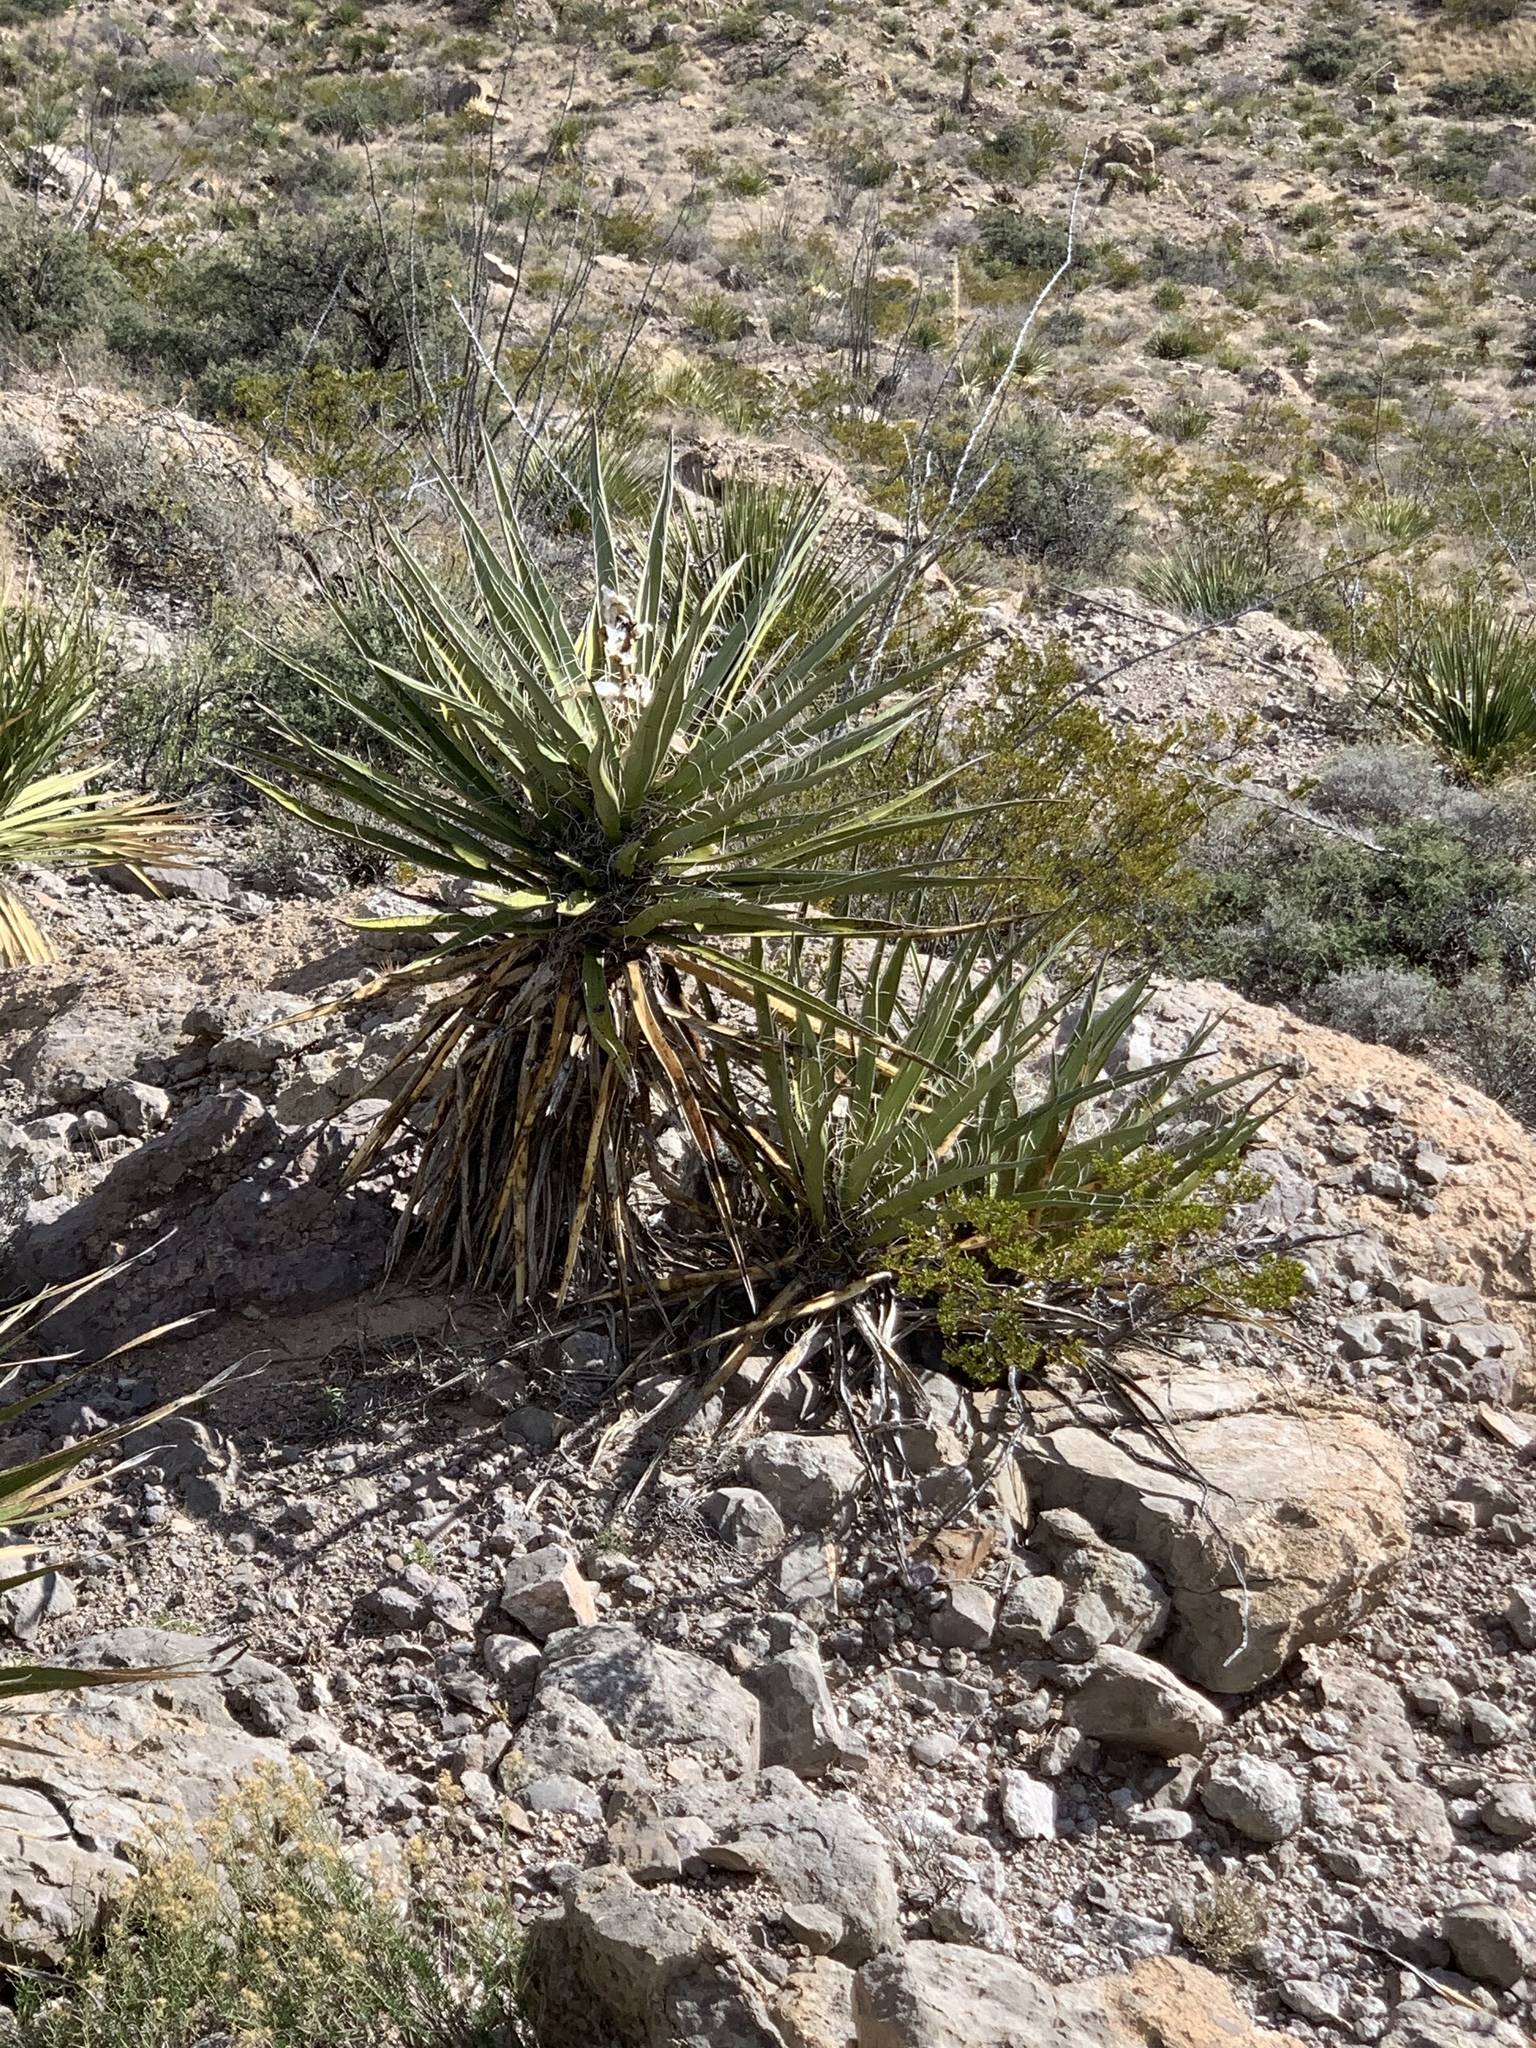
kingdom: Plantae
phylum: Tracheophyta
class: Liliopsida
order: Asparagales
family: Asparagaceae
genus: Yucca
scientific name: Yucca treculiana
